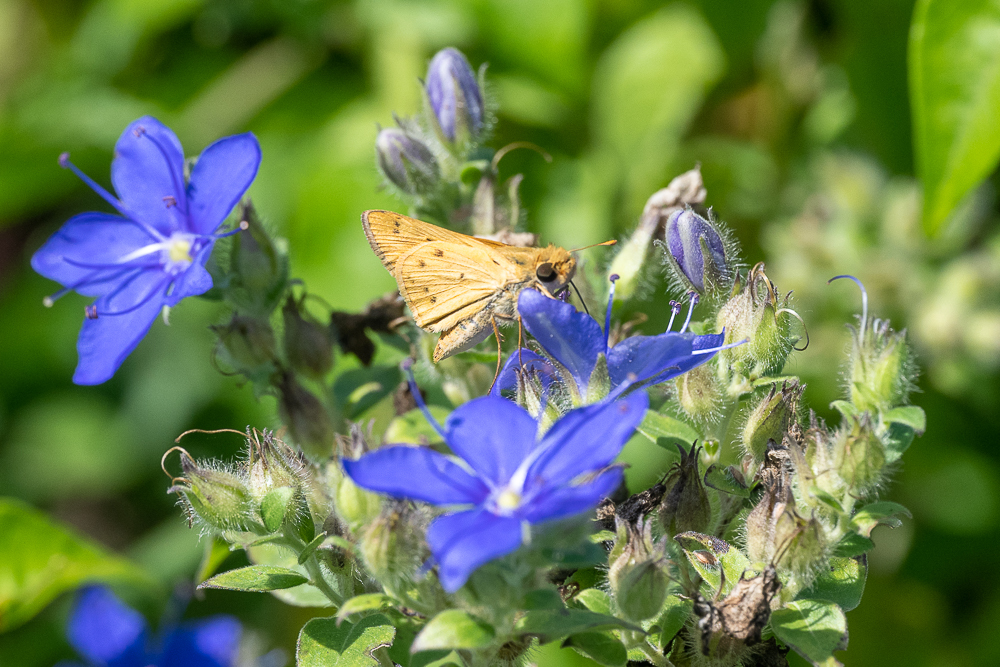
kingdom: Animalia
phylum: Arthropoda
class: Insecta
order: Lepidoptera
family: Hesperiidae
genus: Hylephila
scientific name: Hylephila phyleus
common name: Fiery skipper
